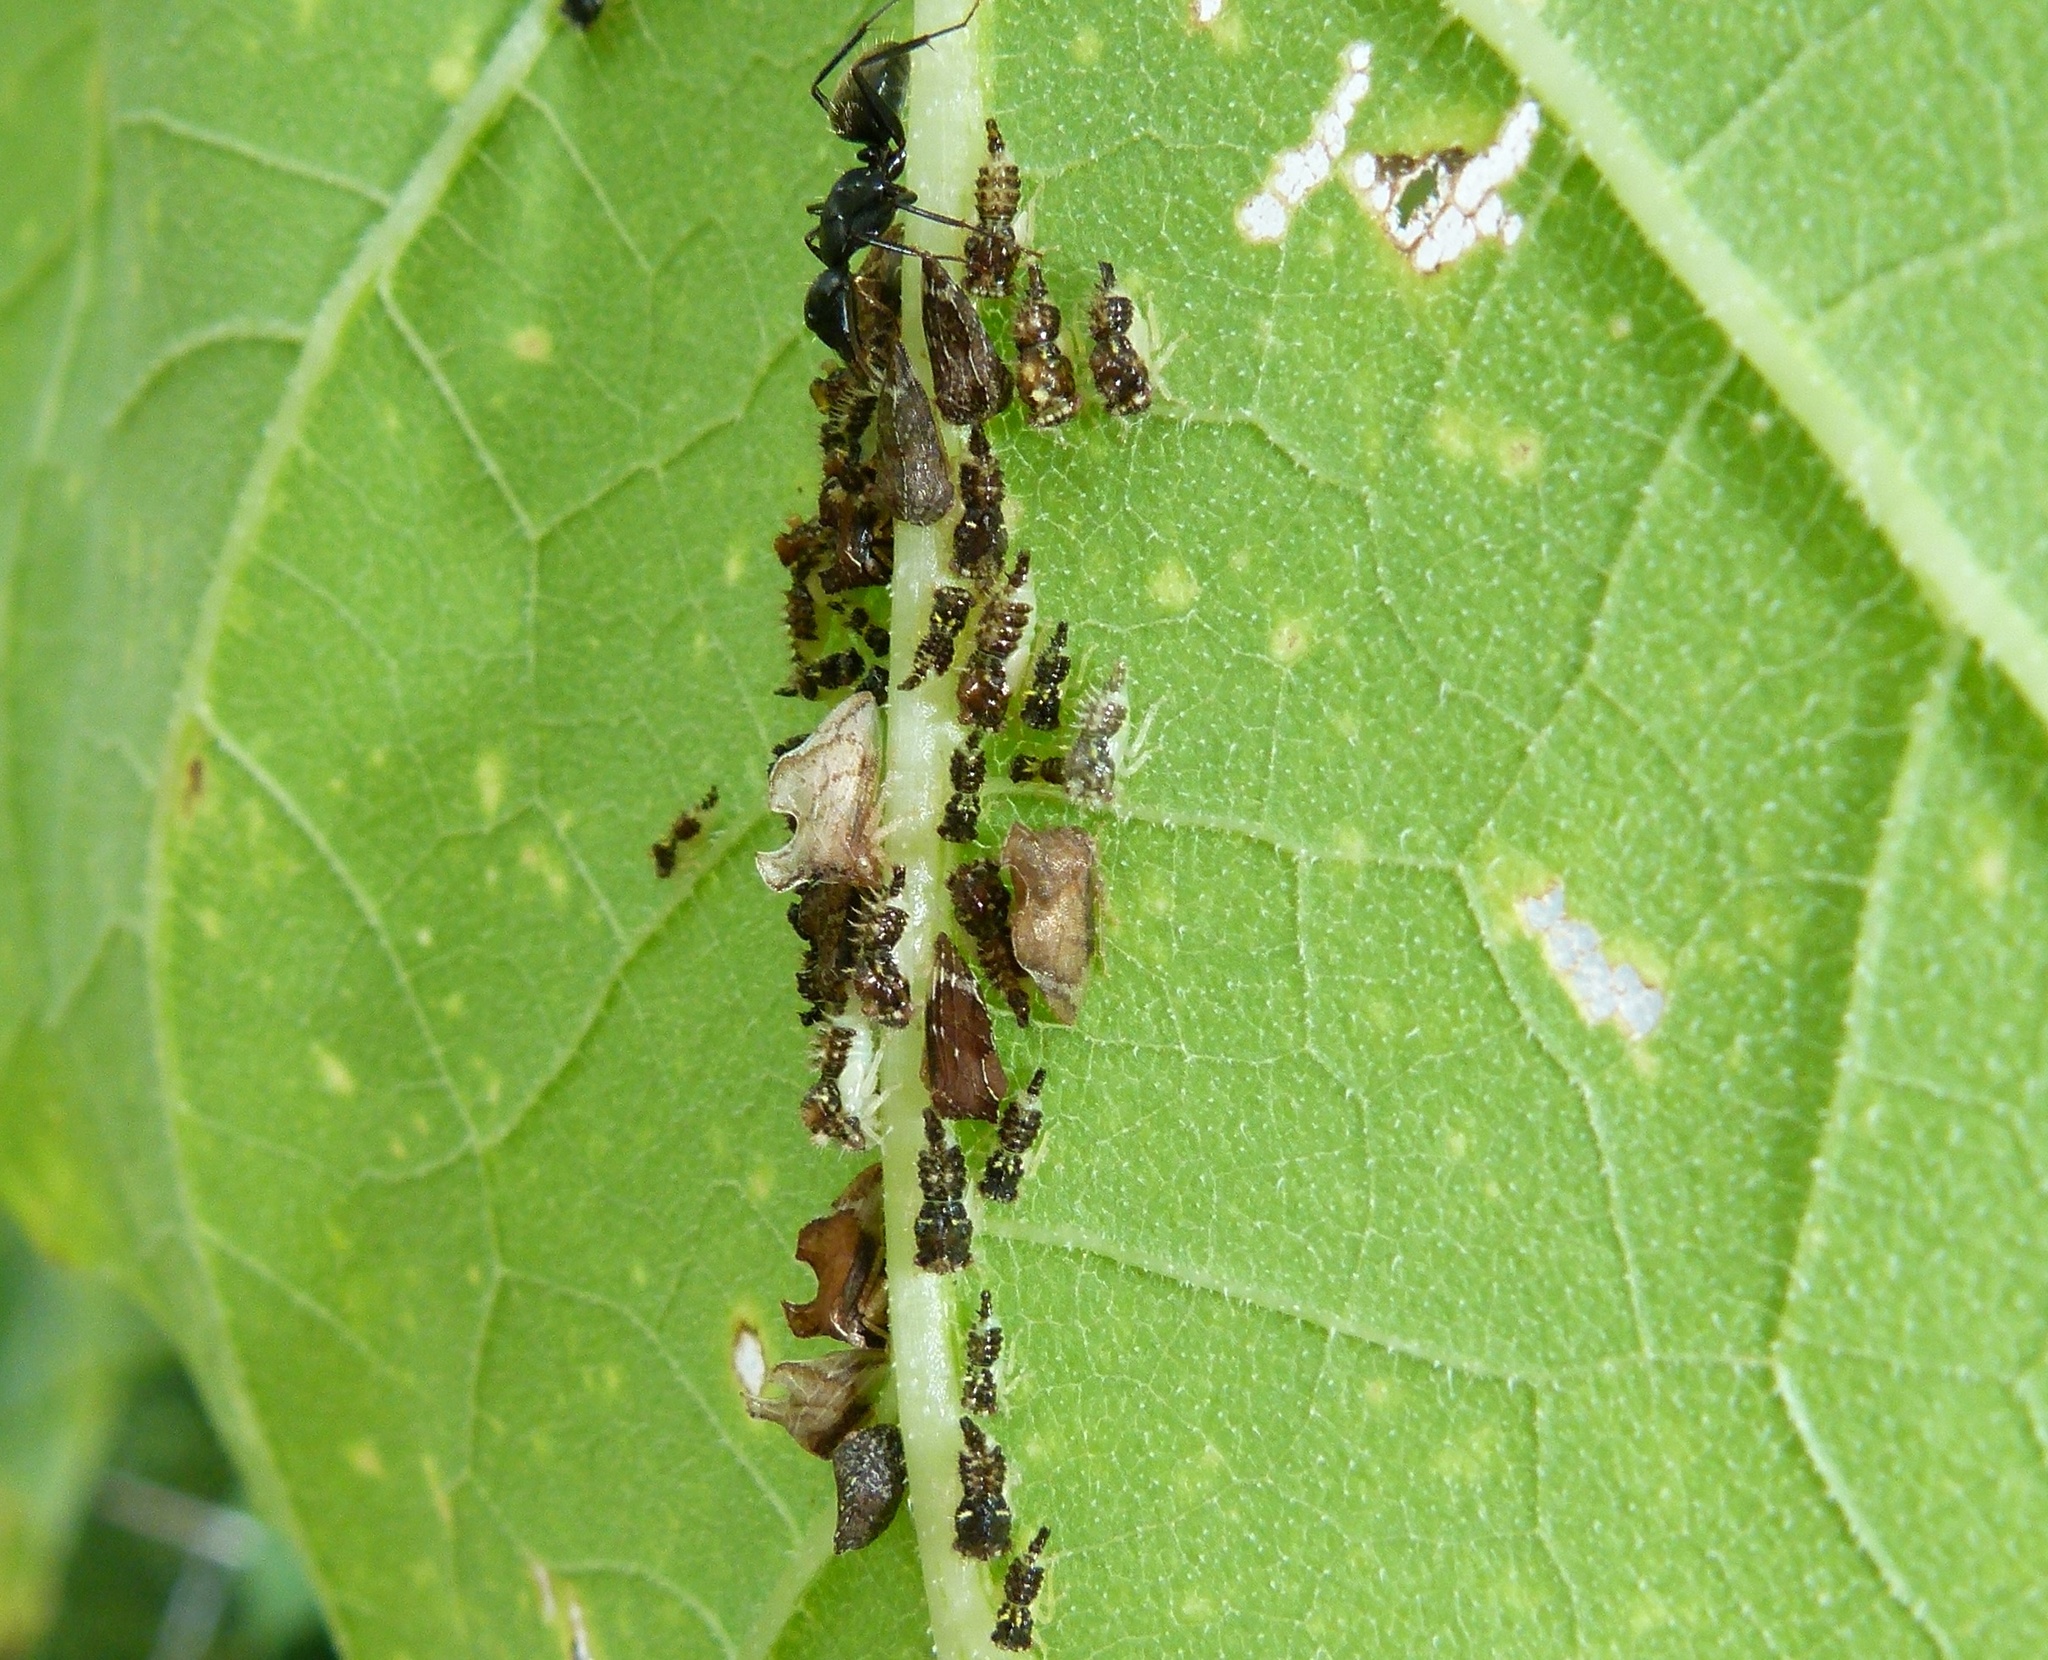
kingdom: Animalia
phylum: Arthropoda
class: Insecta
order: Hemiptera
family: Membracidae
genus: Entylia
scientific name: Entylia carinata
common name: Keeled treehopper
